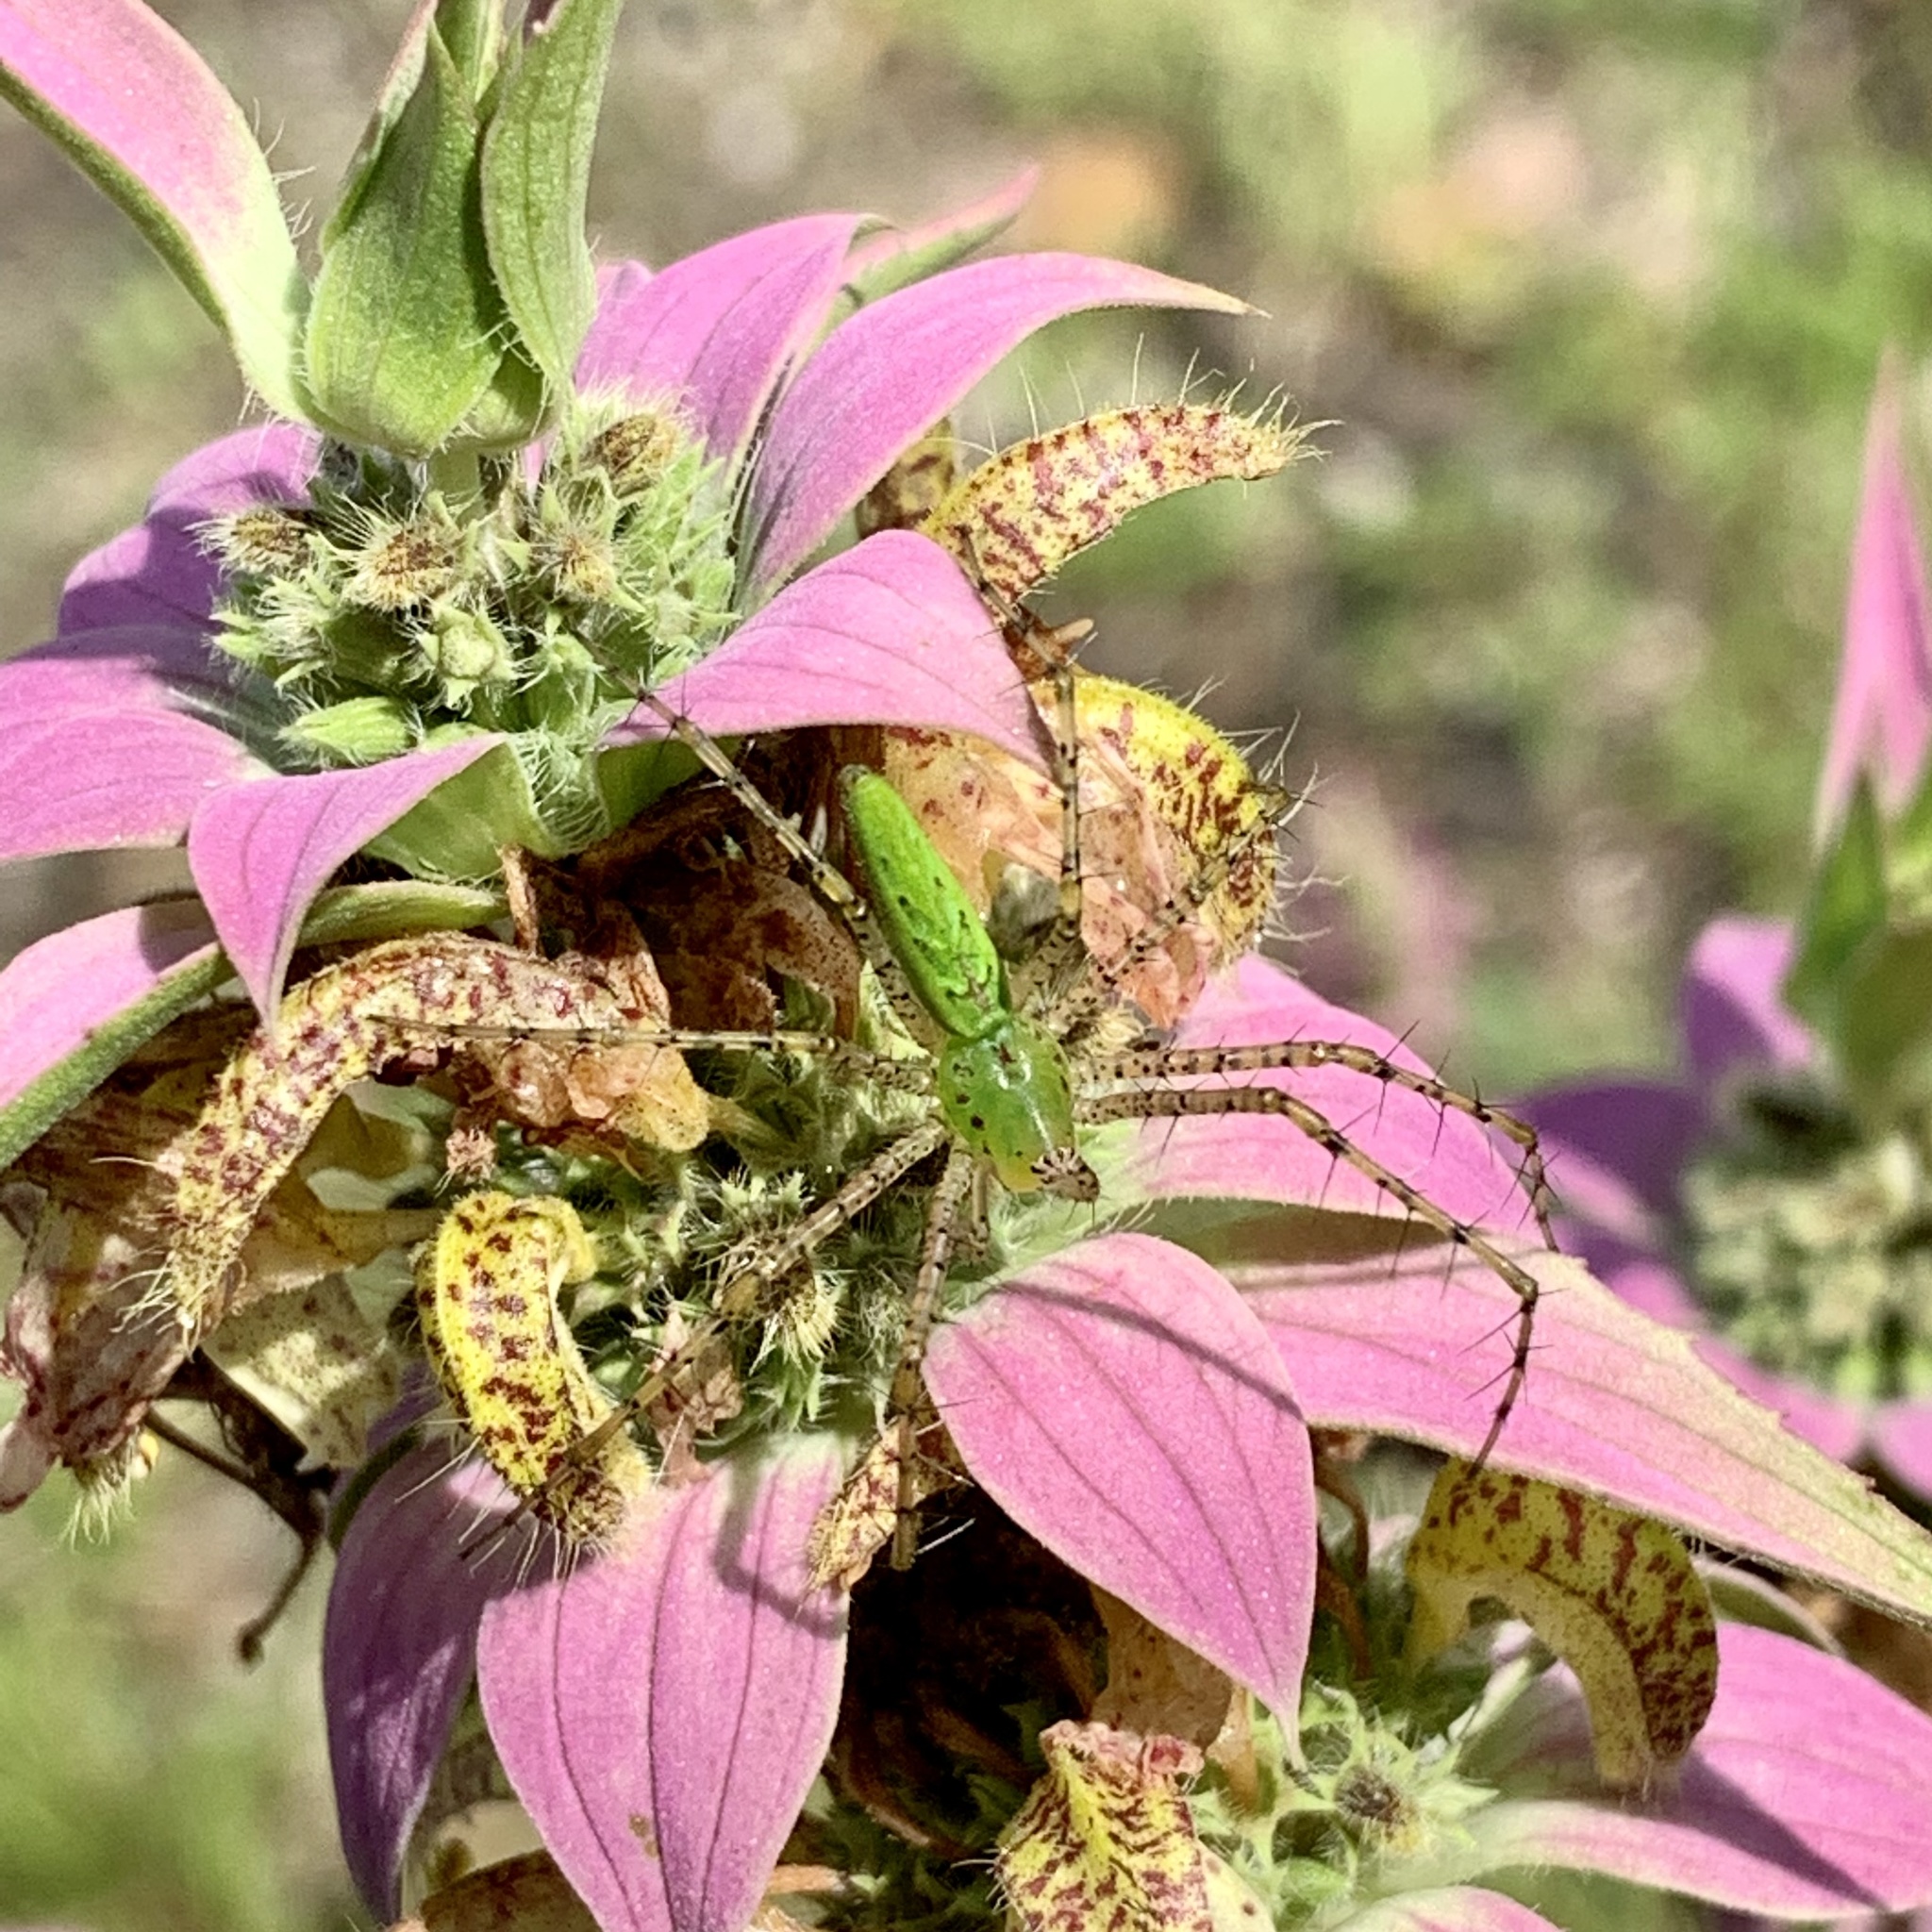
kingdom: Animalia
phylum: Arthropoda
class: Arachnida
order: Araneae
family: Oxyopidae
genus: Peucetia
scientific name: Peucetia viridans
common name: Lynx spiders
